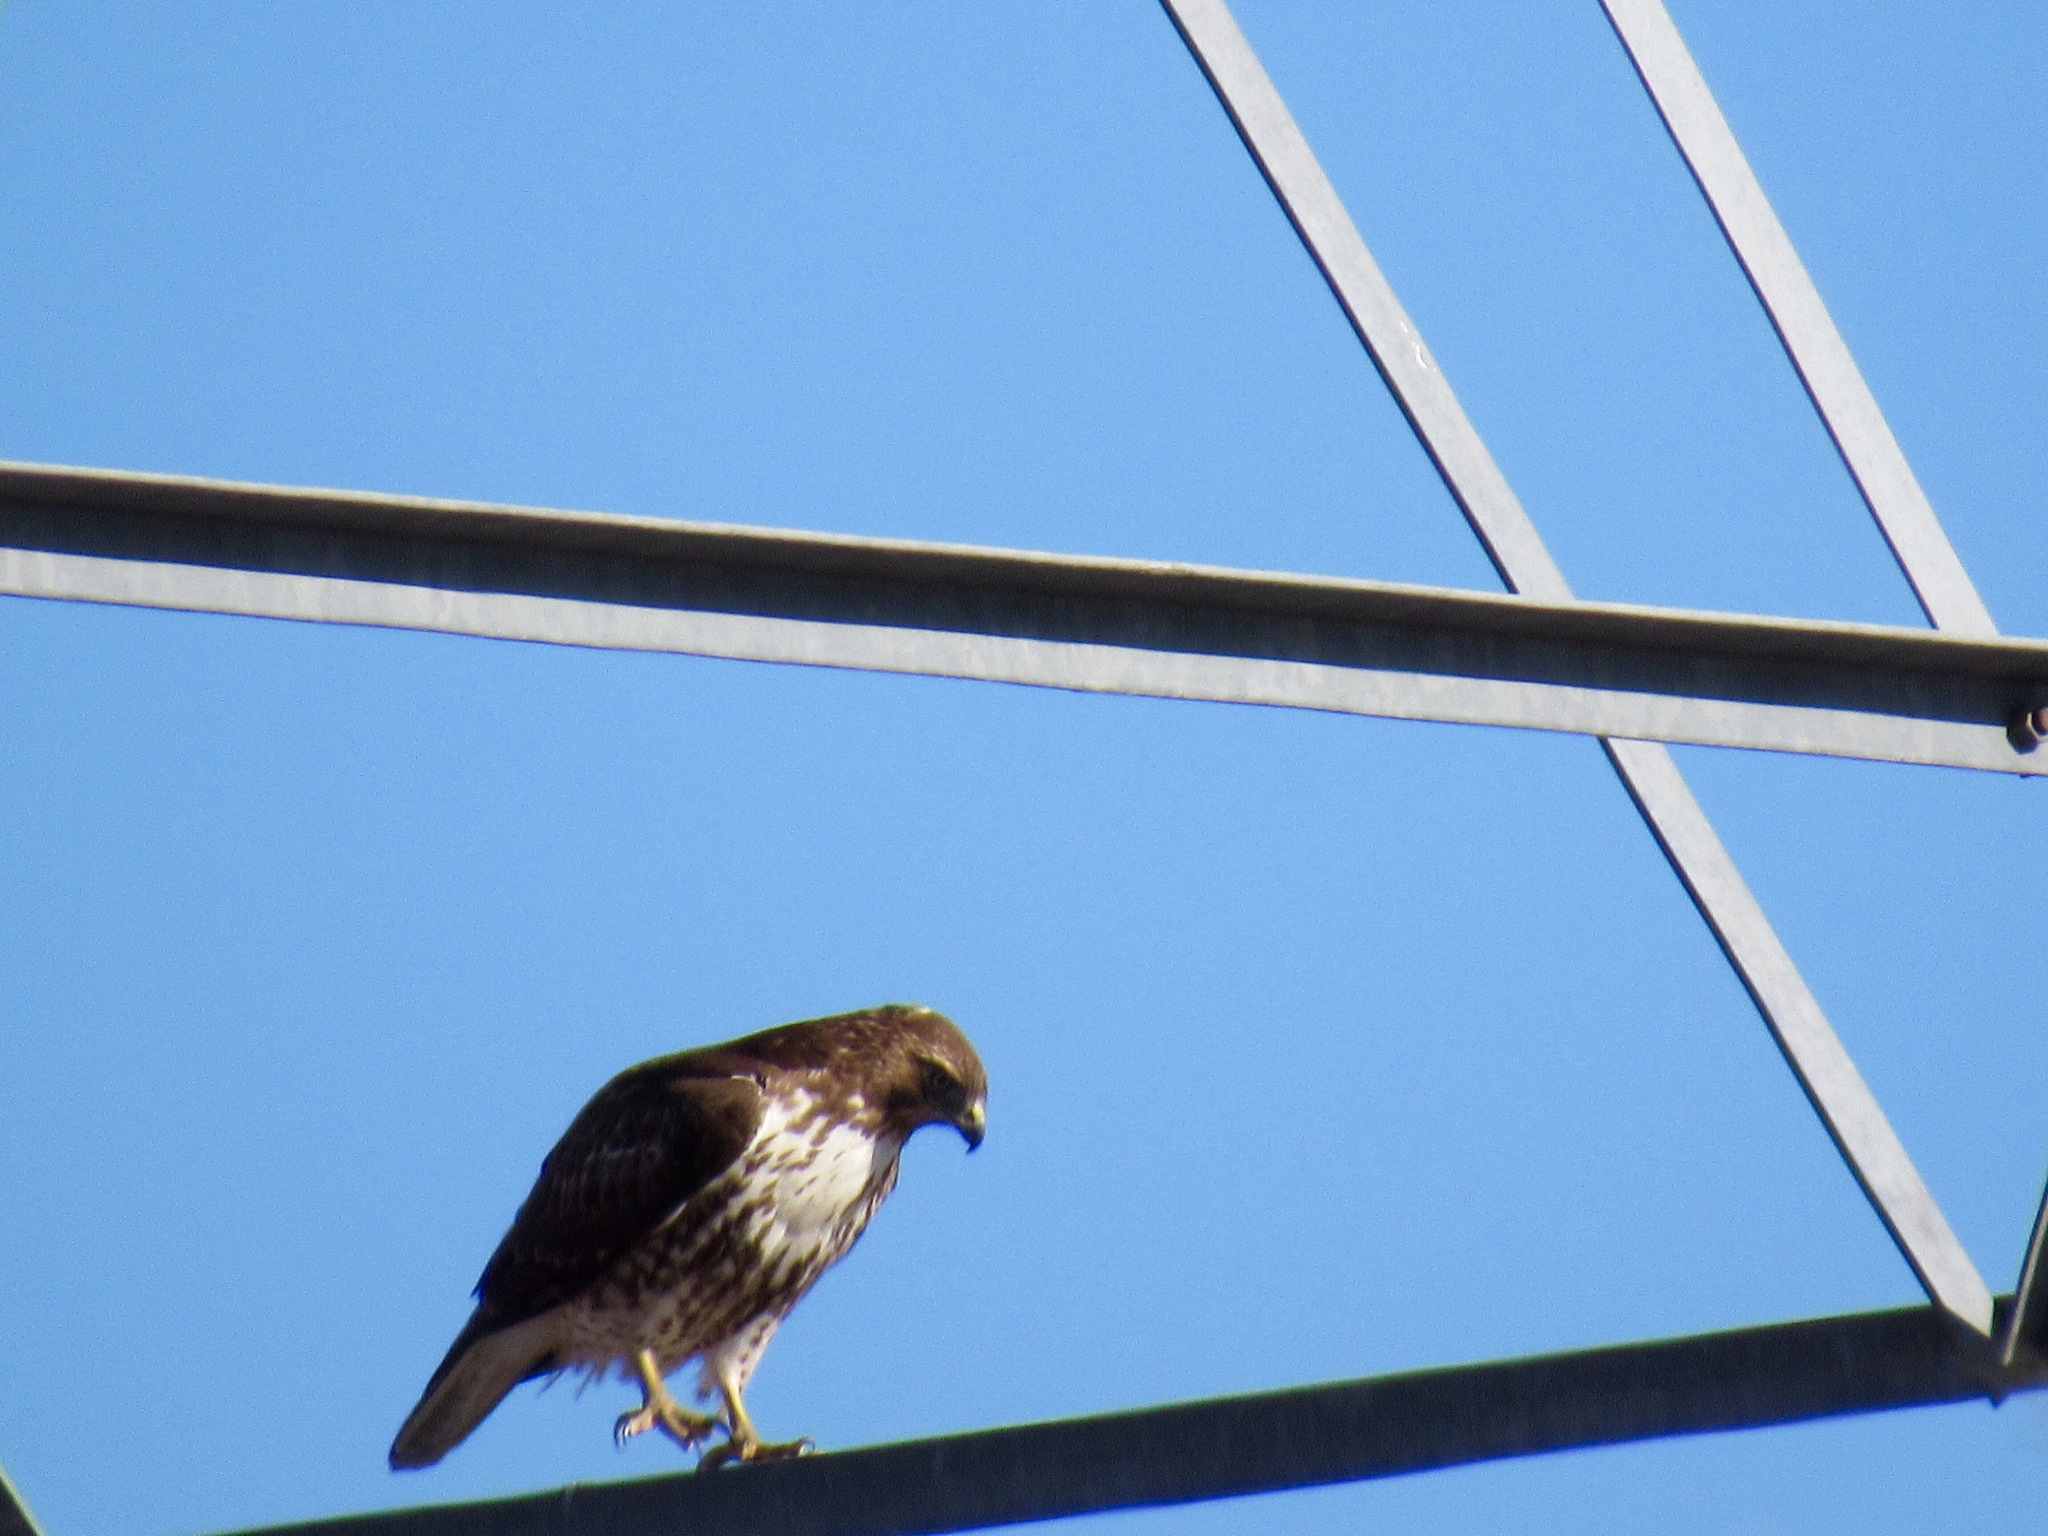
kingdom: Animalia
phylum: Chordata
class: Aves
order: Accipitriformes
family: Accipitridae
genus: Buteo
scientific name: Buteo jamaicensis
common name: Red-tailed hawk
